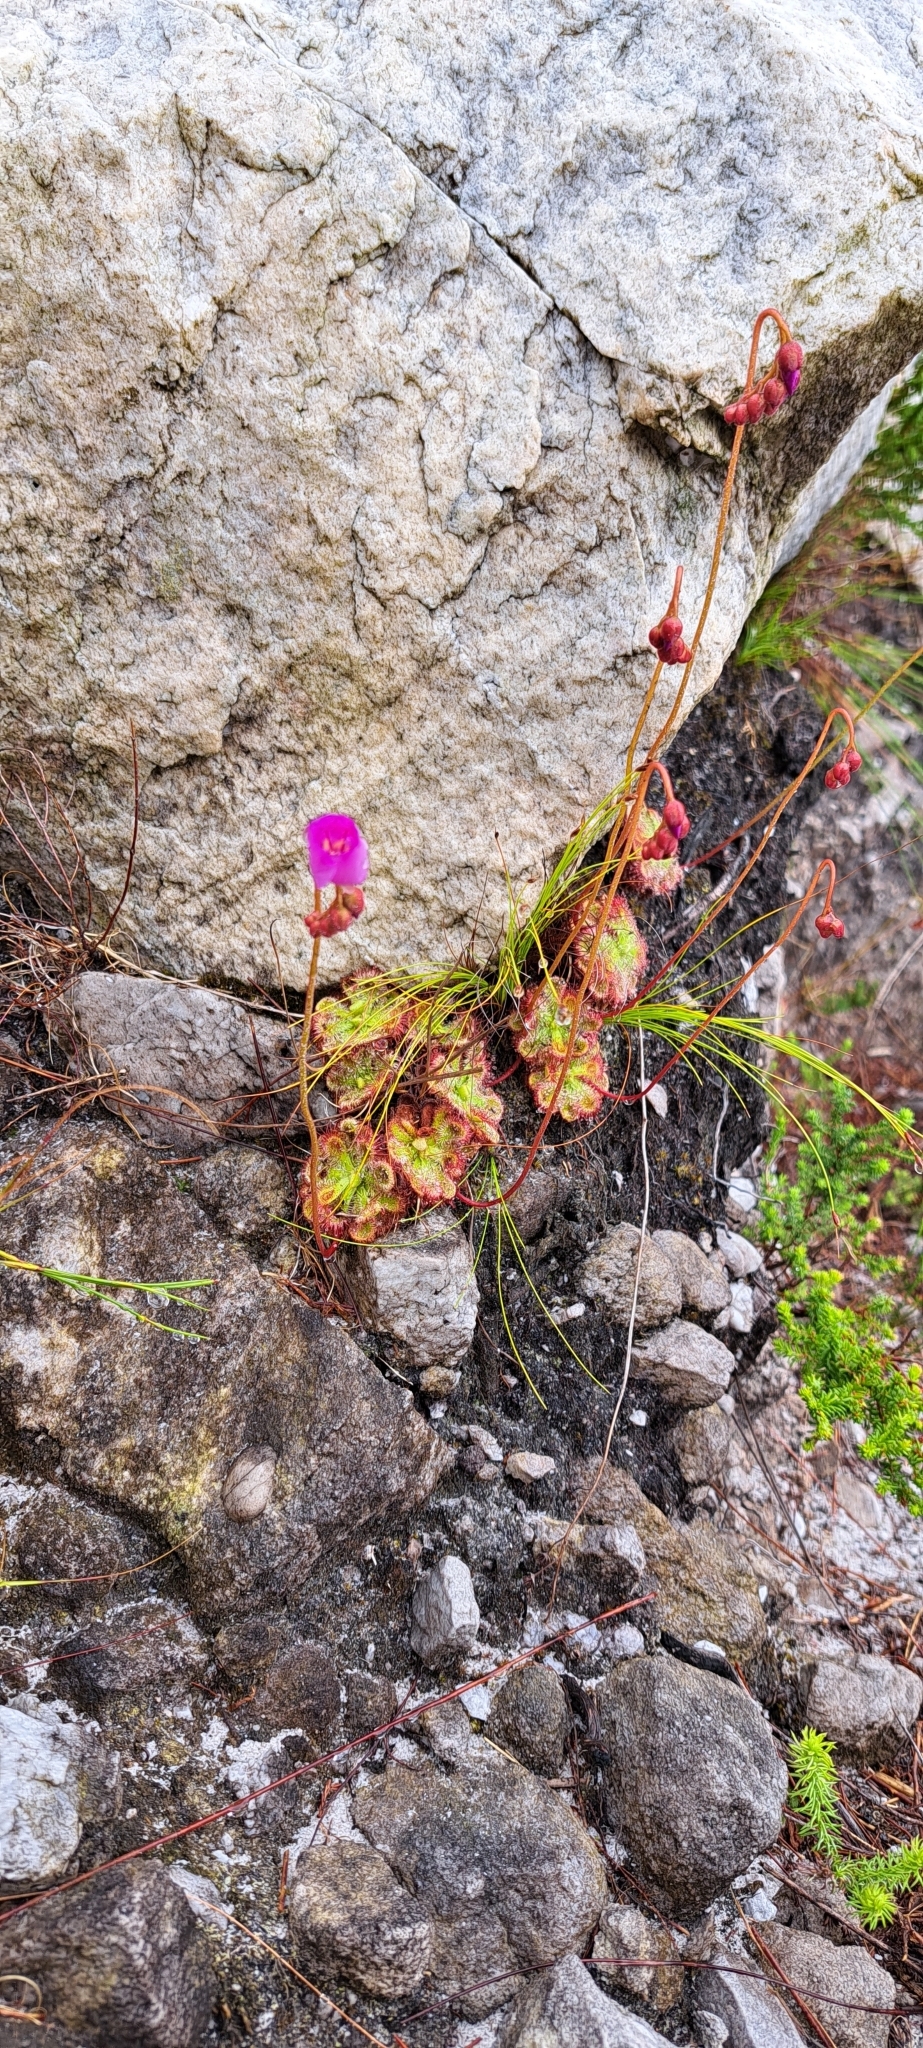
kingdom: Plantae
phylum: Tracheophyta
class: Magnoliopsida
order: Caryophyllales
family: Droseraceae
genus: Drosera
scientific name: Drosera xerophila
